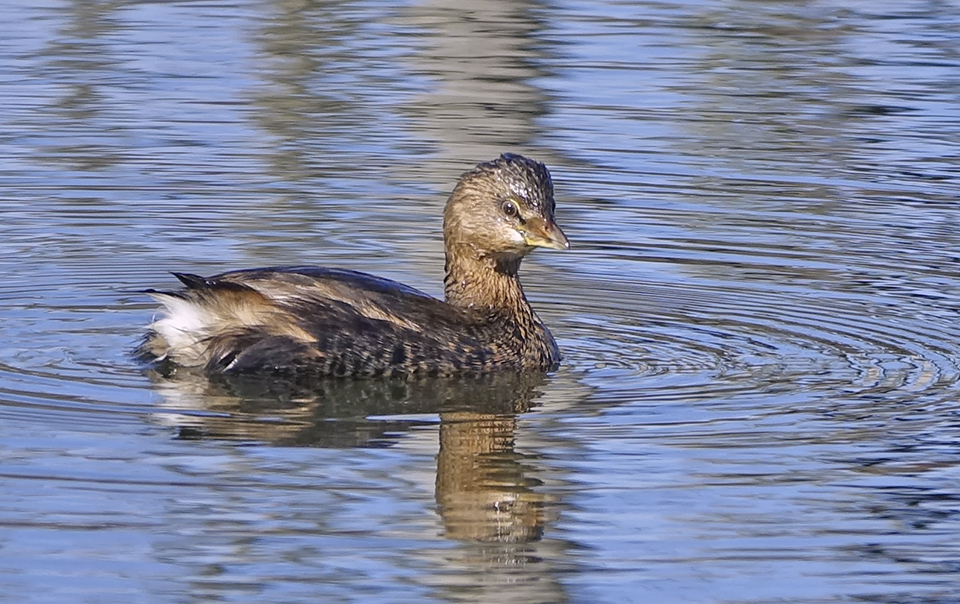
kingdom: Animalia
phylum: Chordata
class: Aves
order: Podicipediformes
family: Podicipedidae
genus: Podilymbus
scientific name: Podilymbus podiceps
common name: Pied-billed grebe
